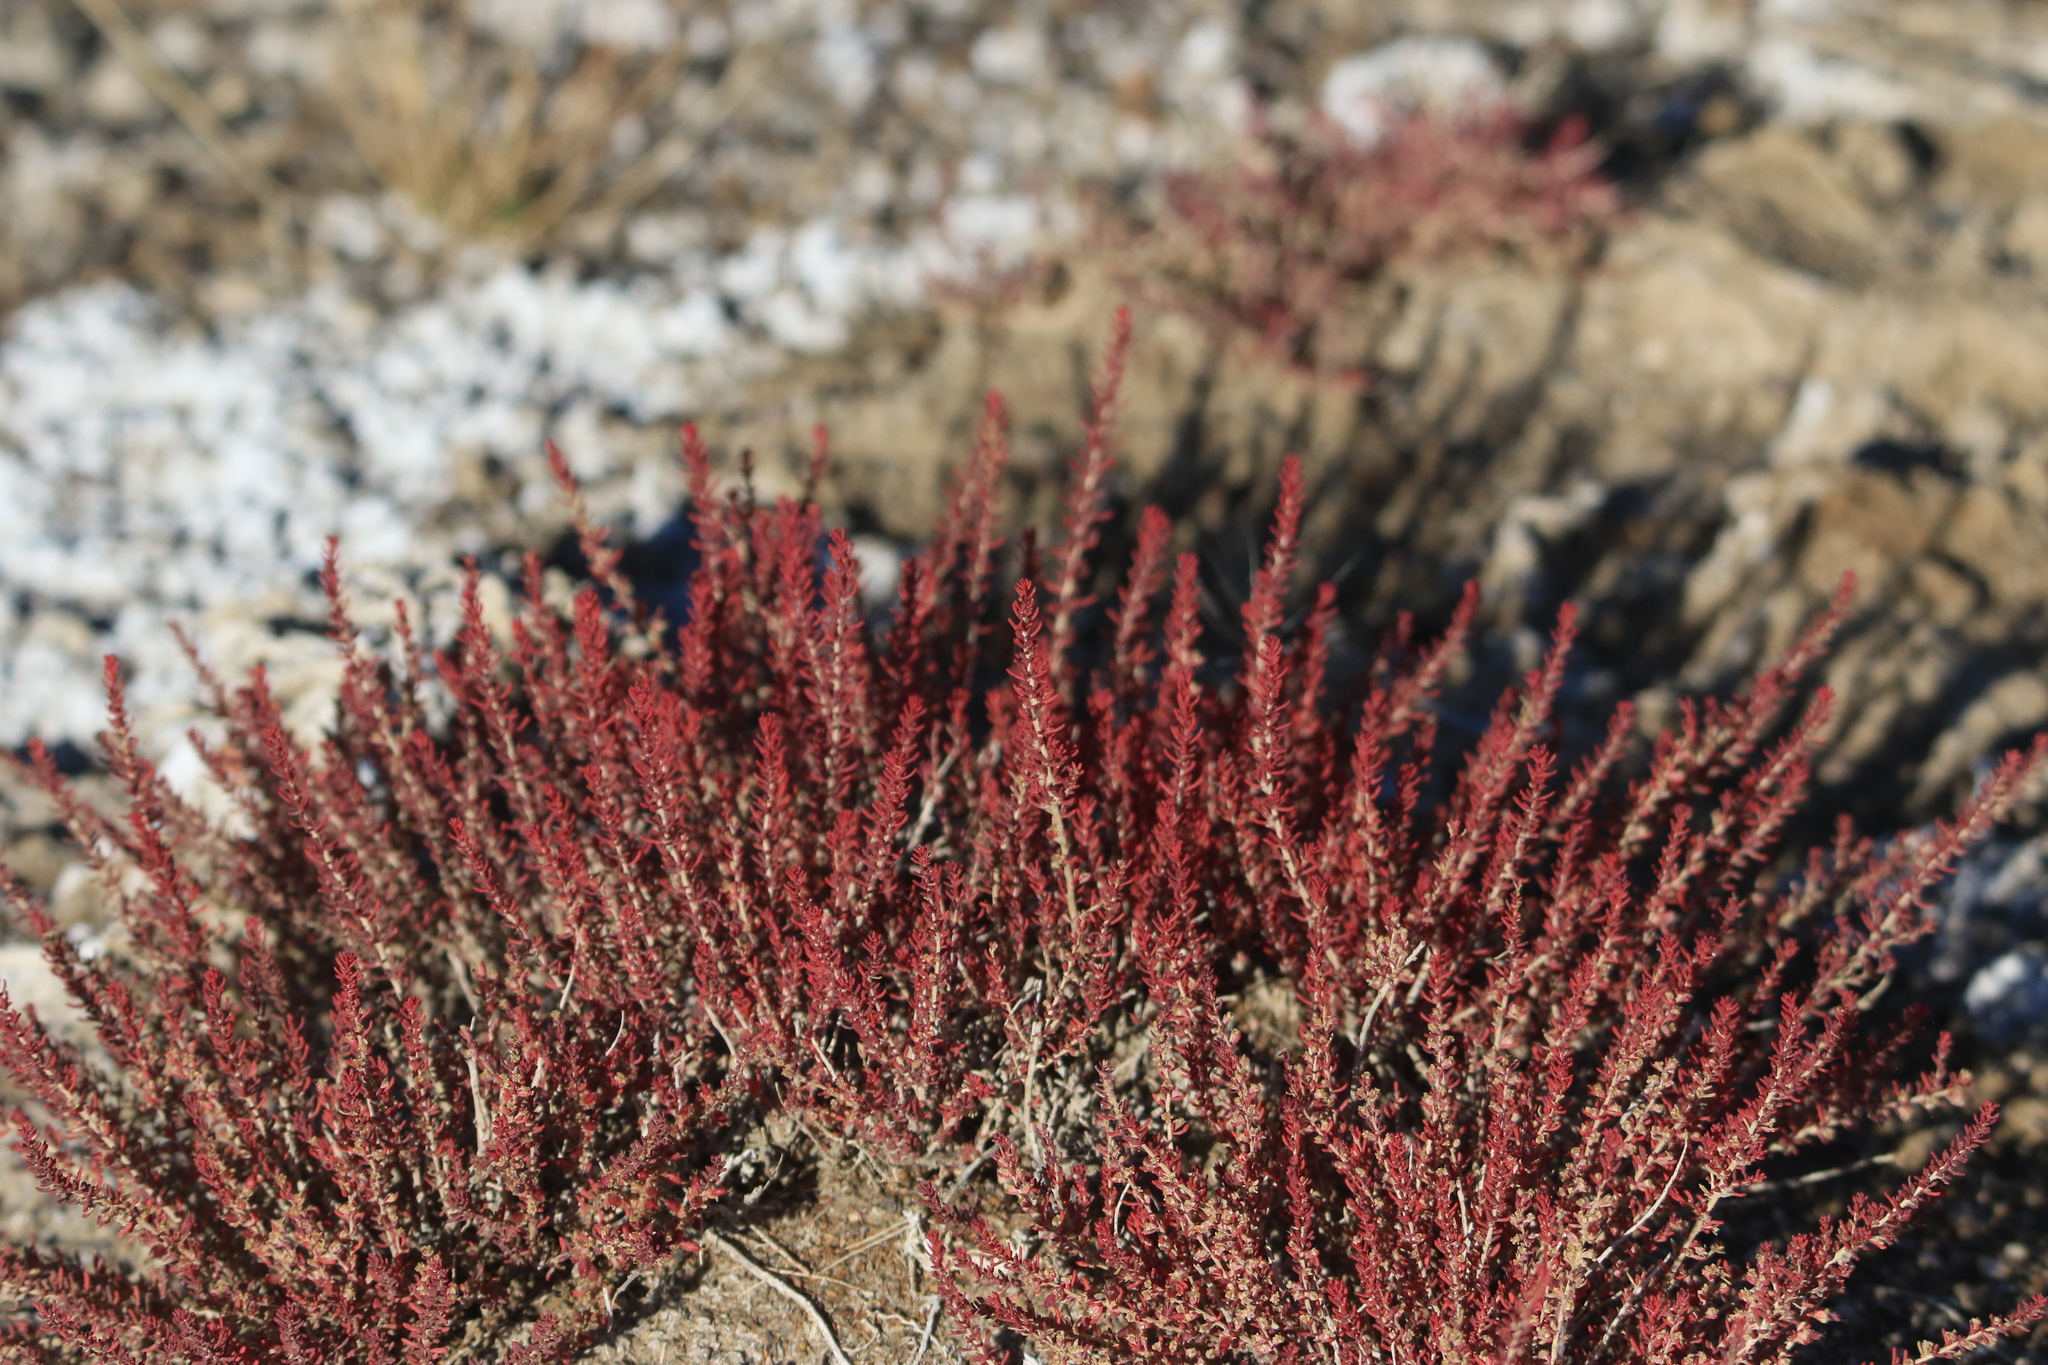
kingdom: Plantae
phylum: Tracheophyta
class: Magnoliopsida
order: Caryophyllales
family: Tamaricaceae
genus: Reaumuria
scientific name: Reaumuria songarica
